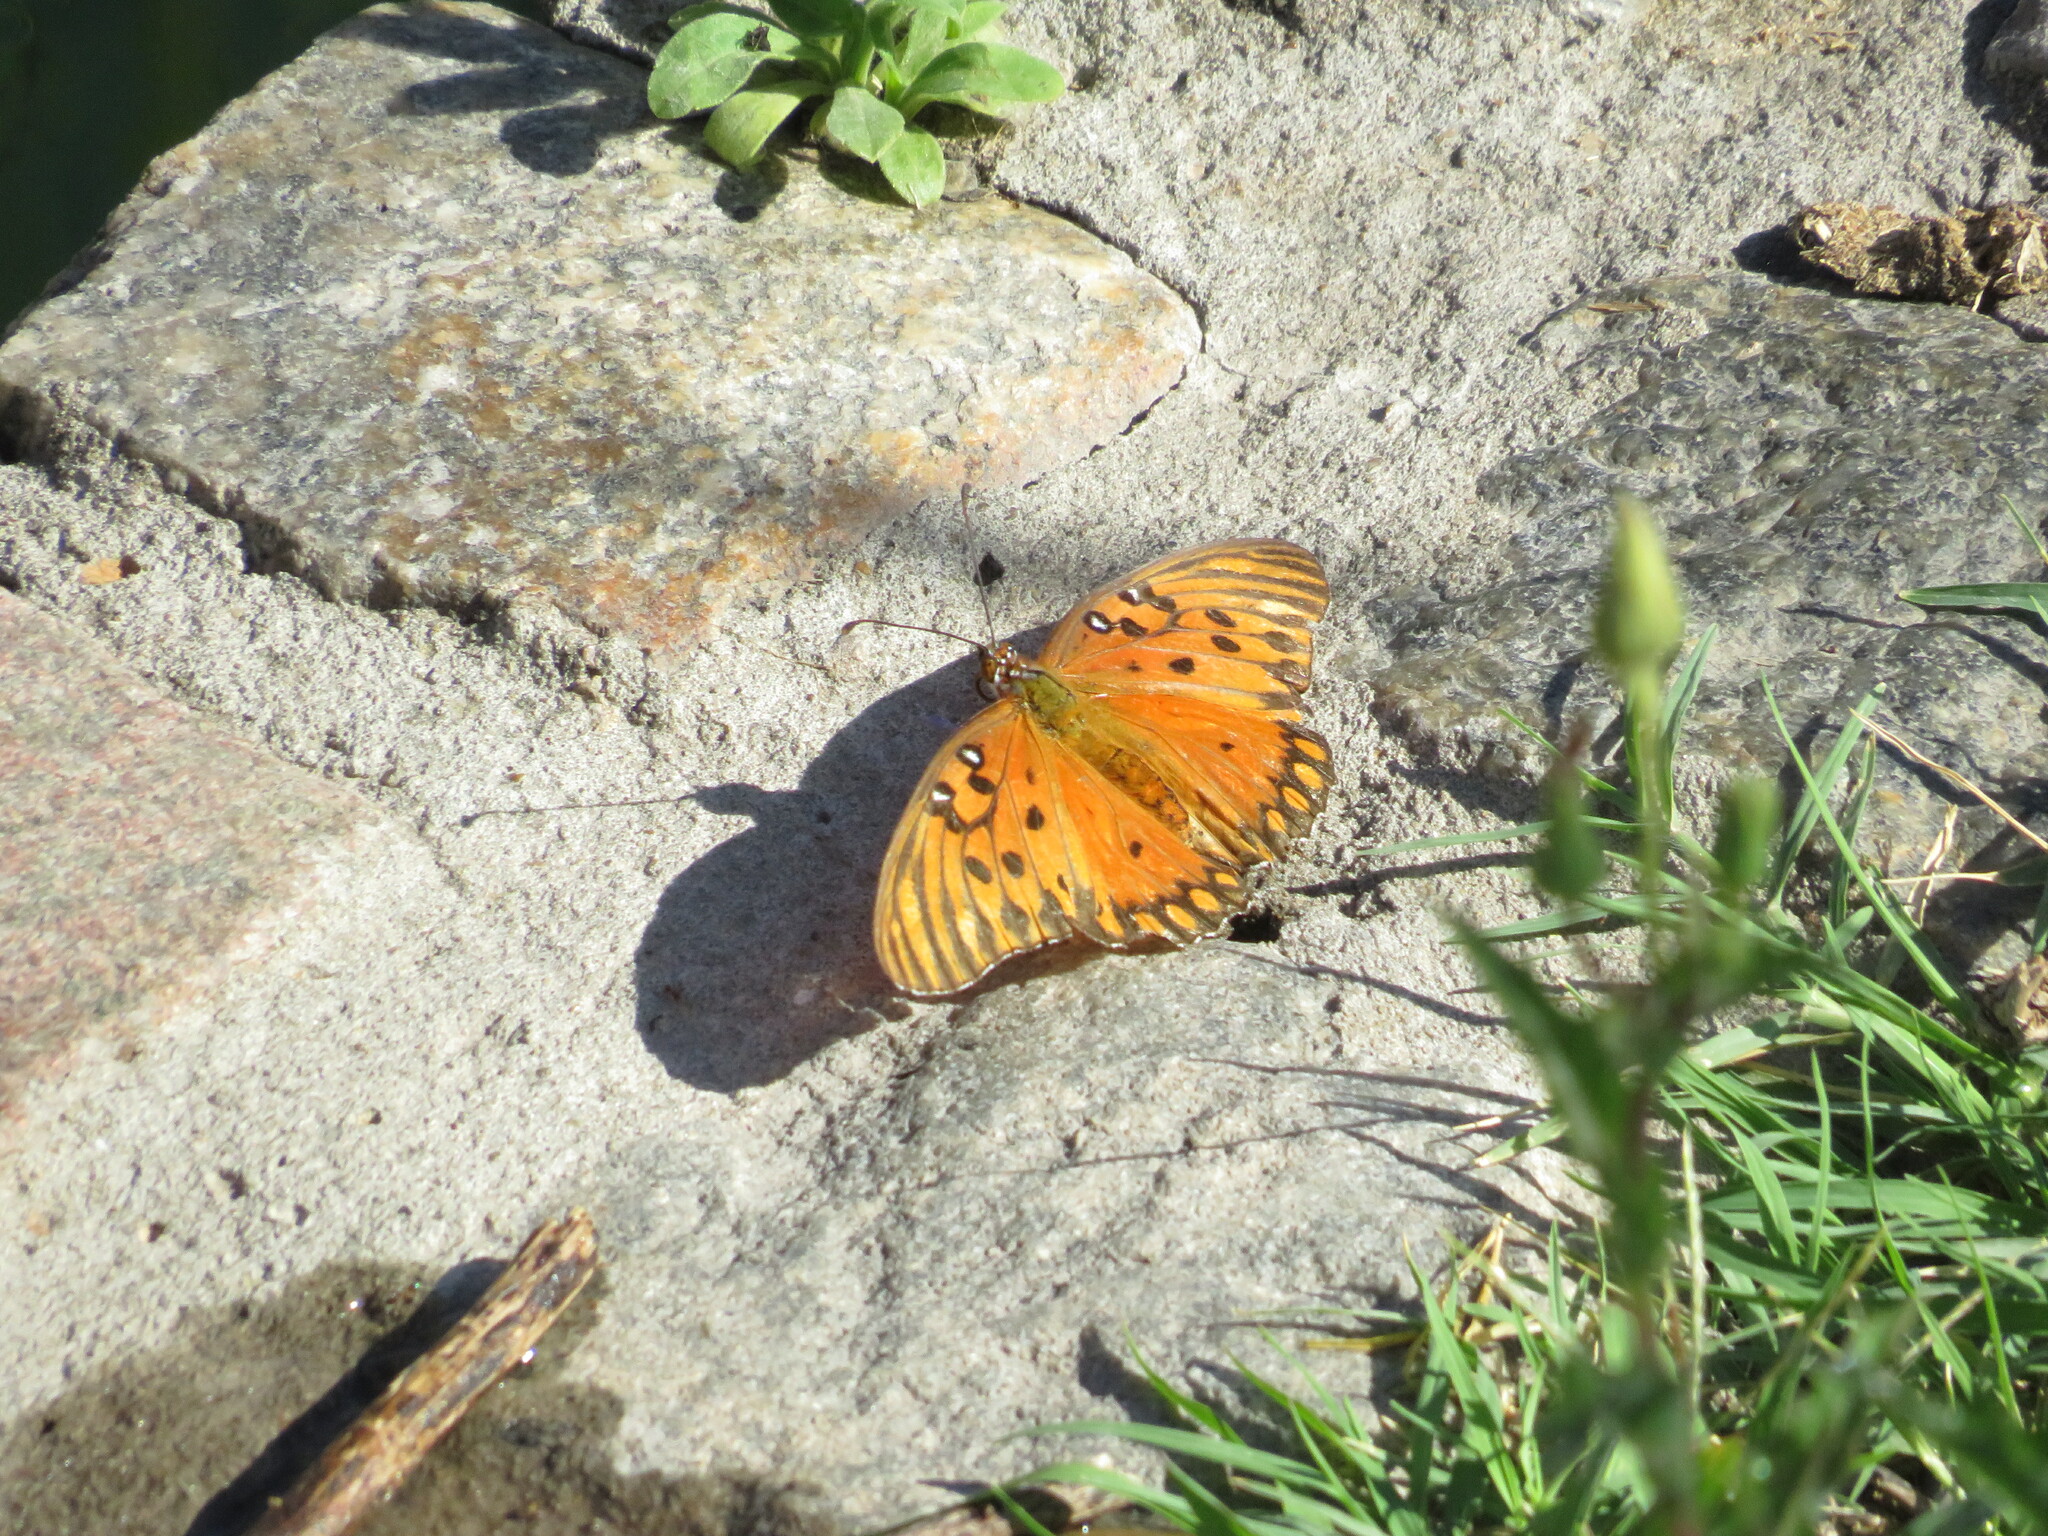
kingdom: Animalia
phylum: Arthropoda
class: Insecta
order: Lepidoptera
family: Nymphalidae
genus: Dione
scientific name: Dione vanillae
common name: Gulf fritillary
